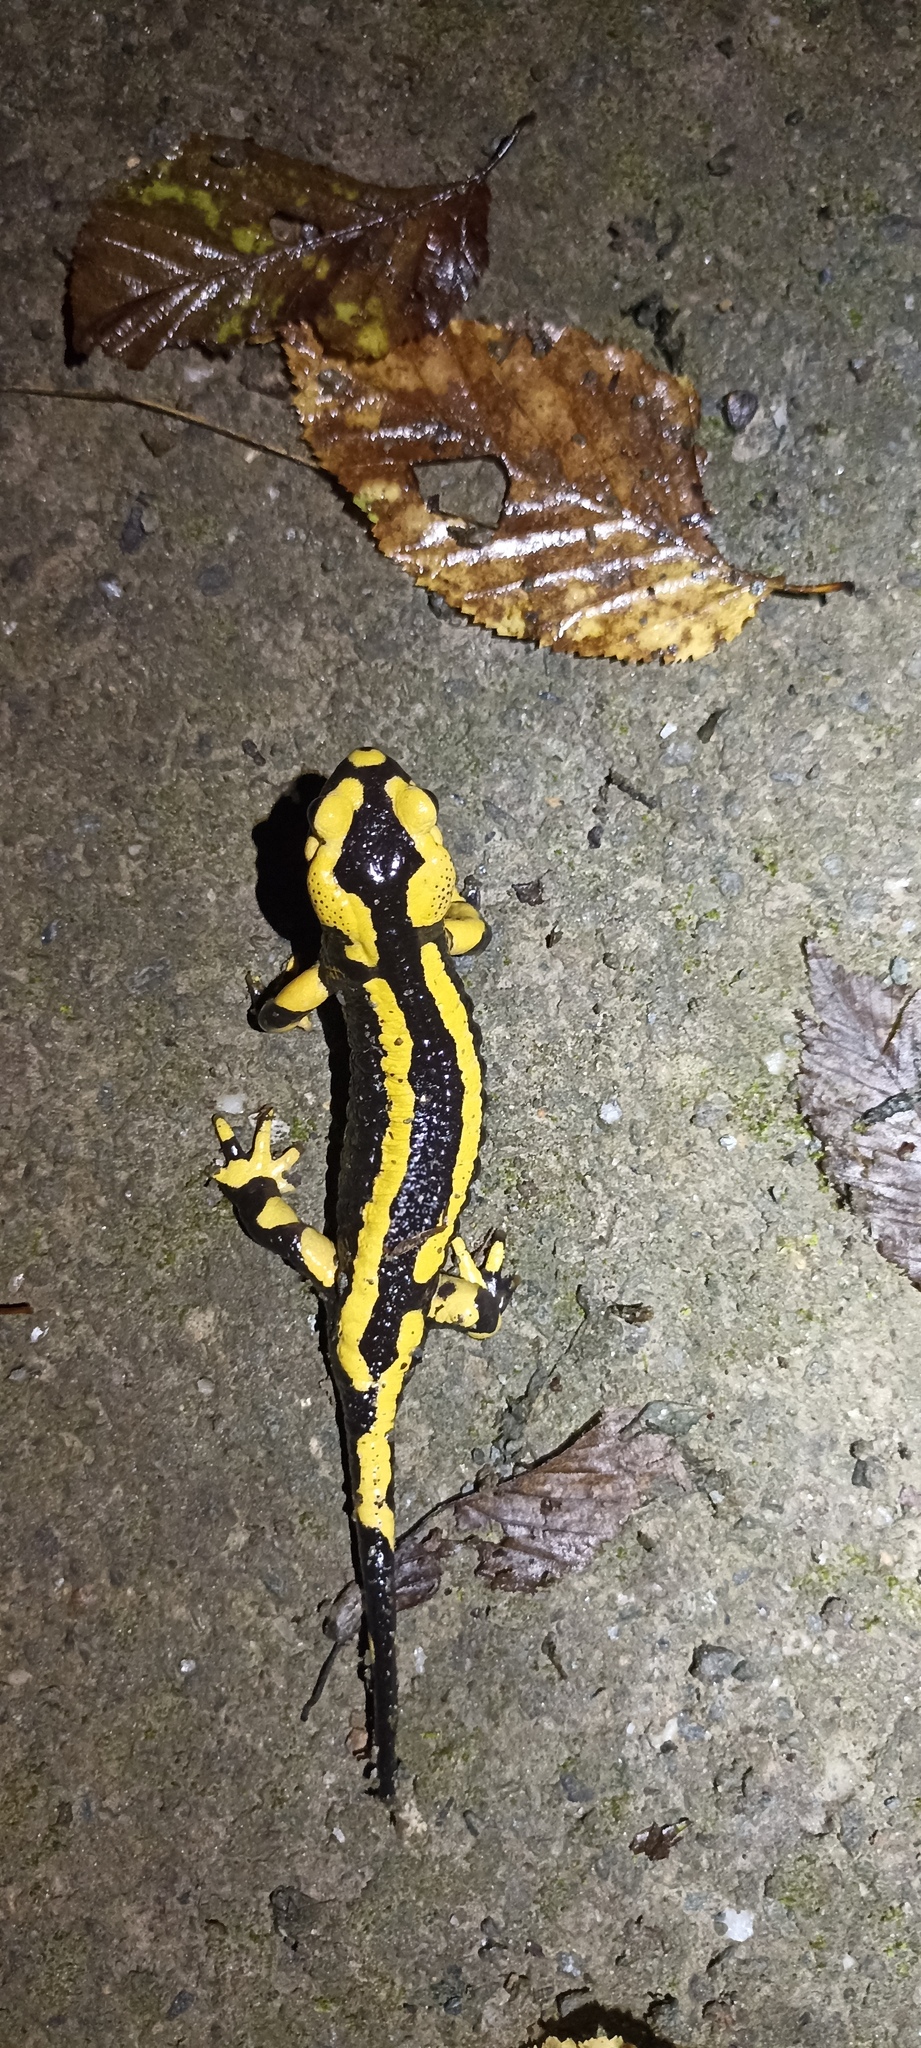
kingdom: Animalia
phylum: Chordata
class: Amphibia
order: Caudata
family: Salamandridae
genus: Salamandra
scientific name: Salamandra salamandra
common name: Fire salamander
